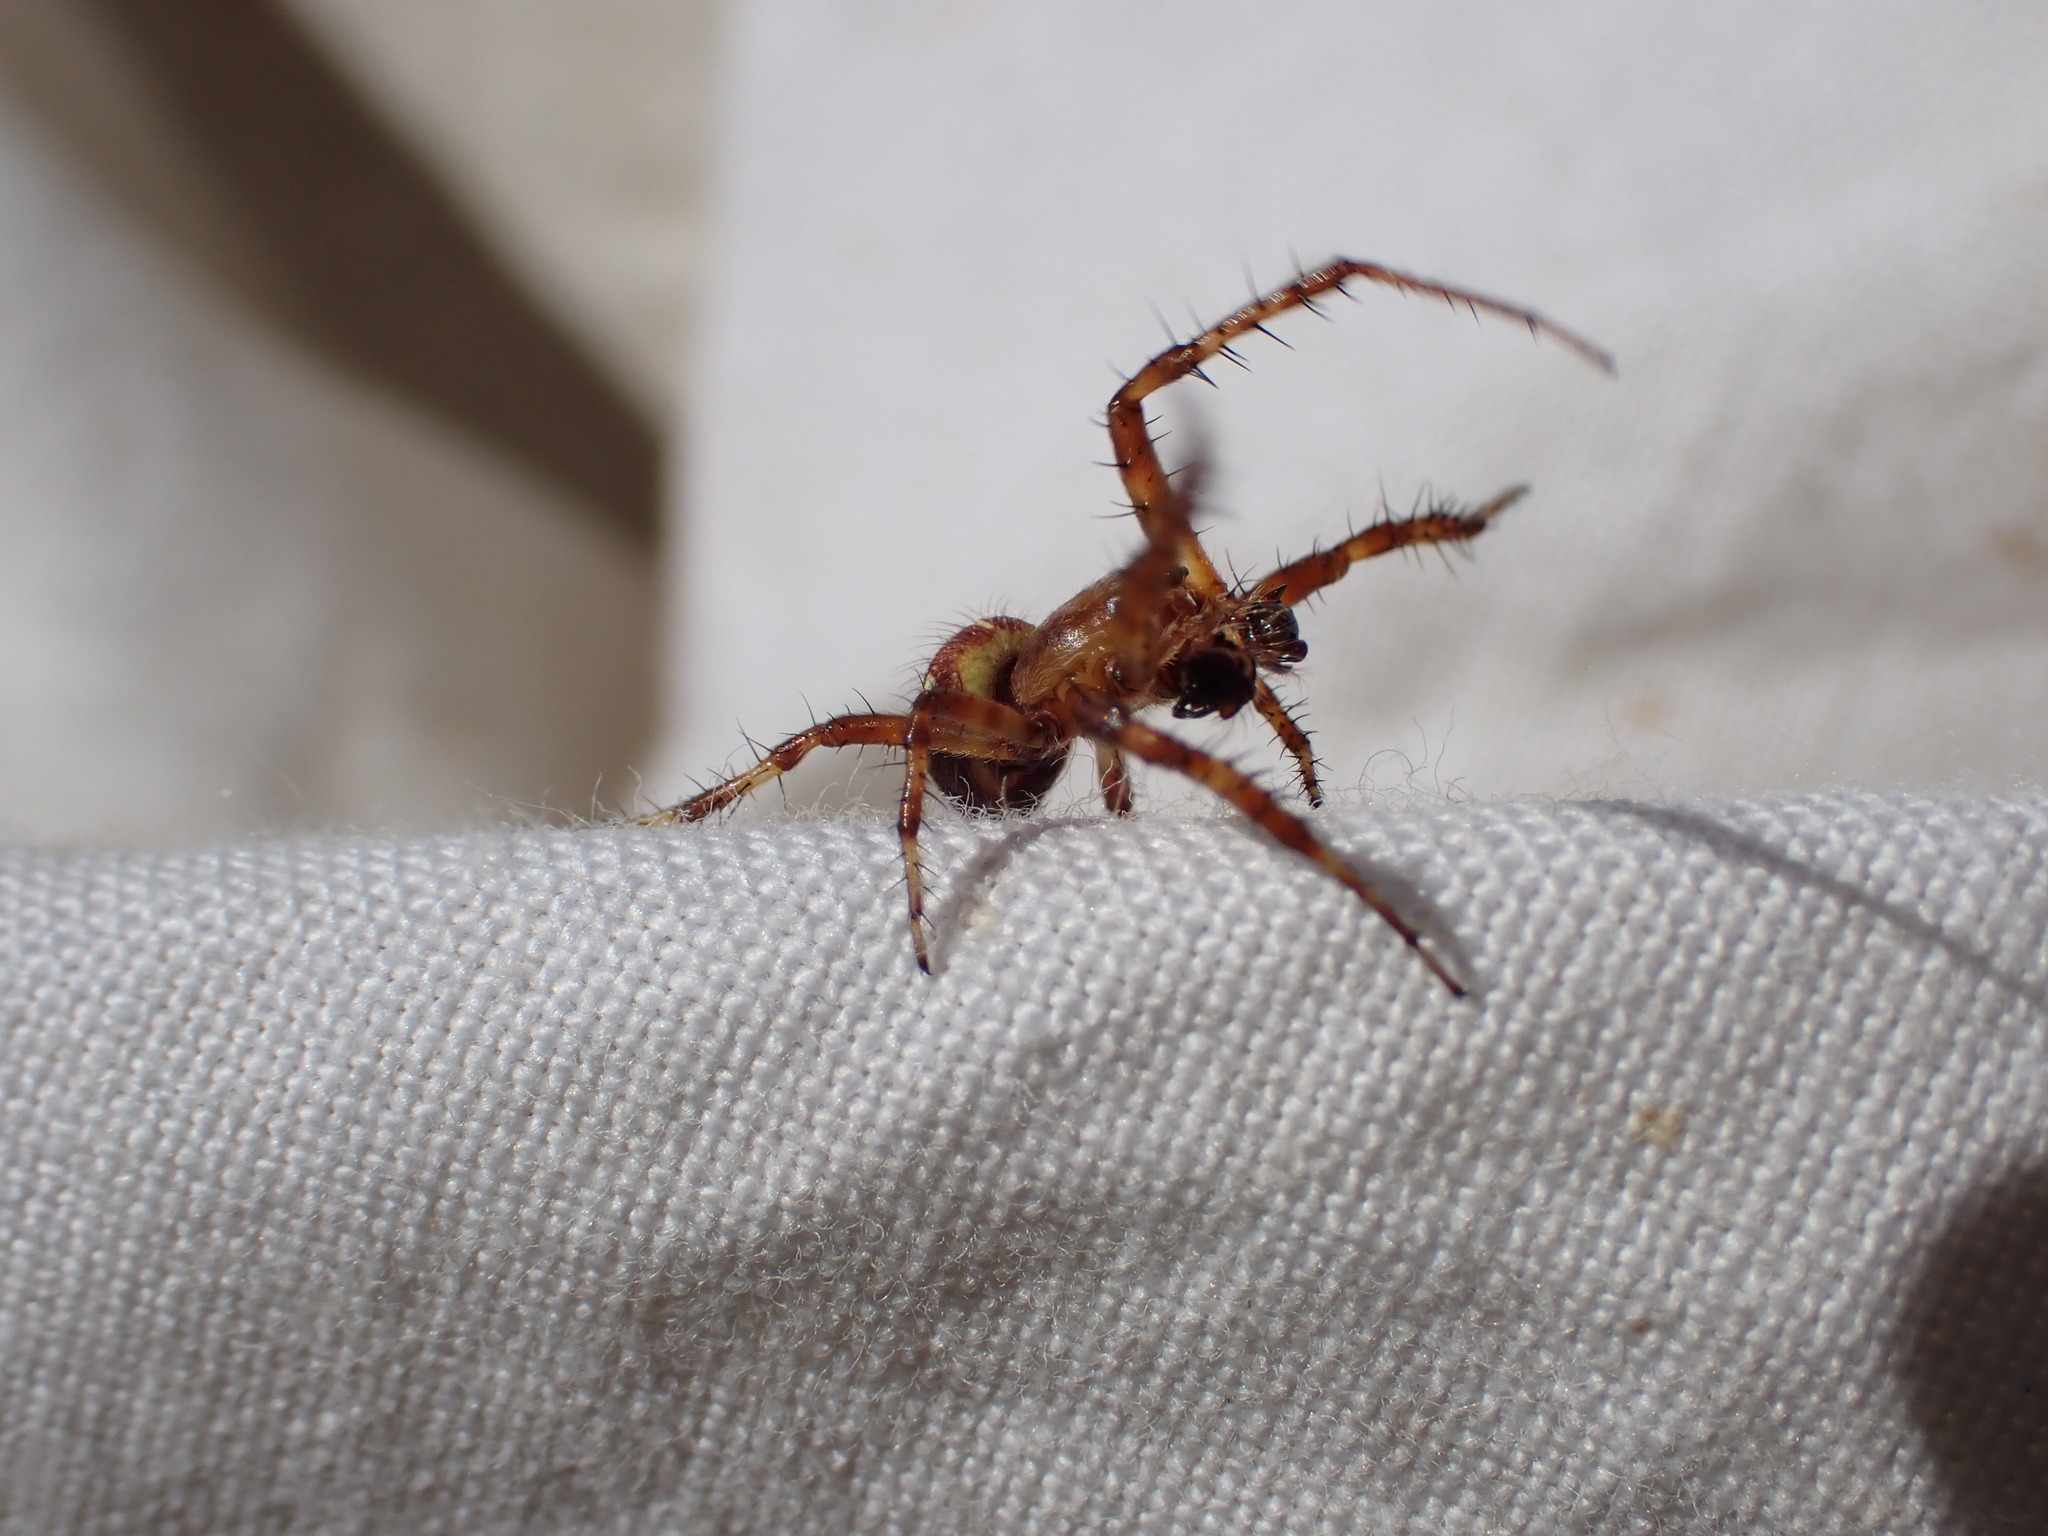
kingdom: Animalia
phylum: Arthropoda
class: Arachnida
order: Araneae
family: Araneidae
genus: Araneus
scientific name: Araneus quadratus
